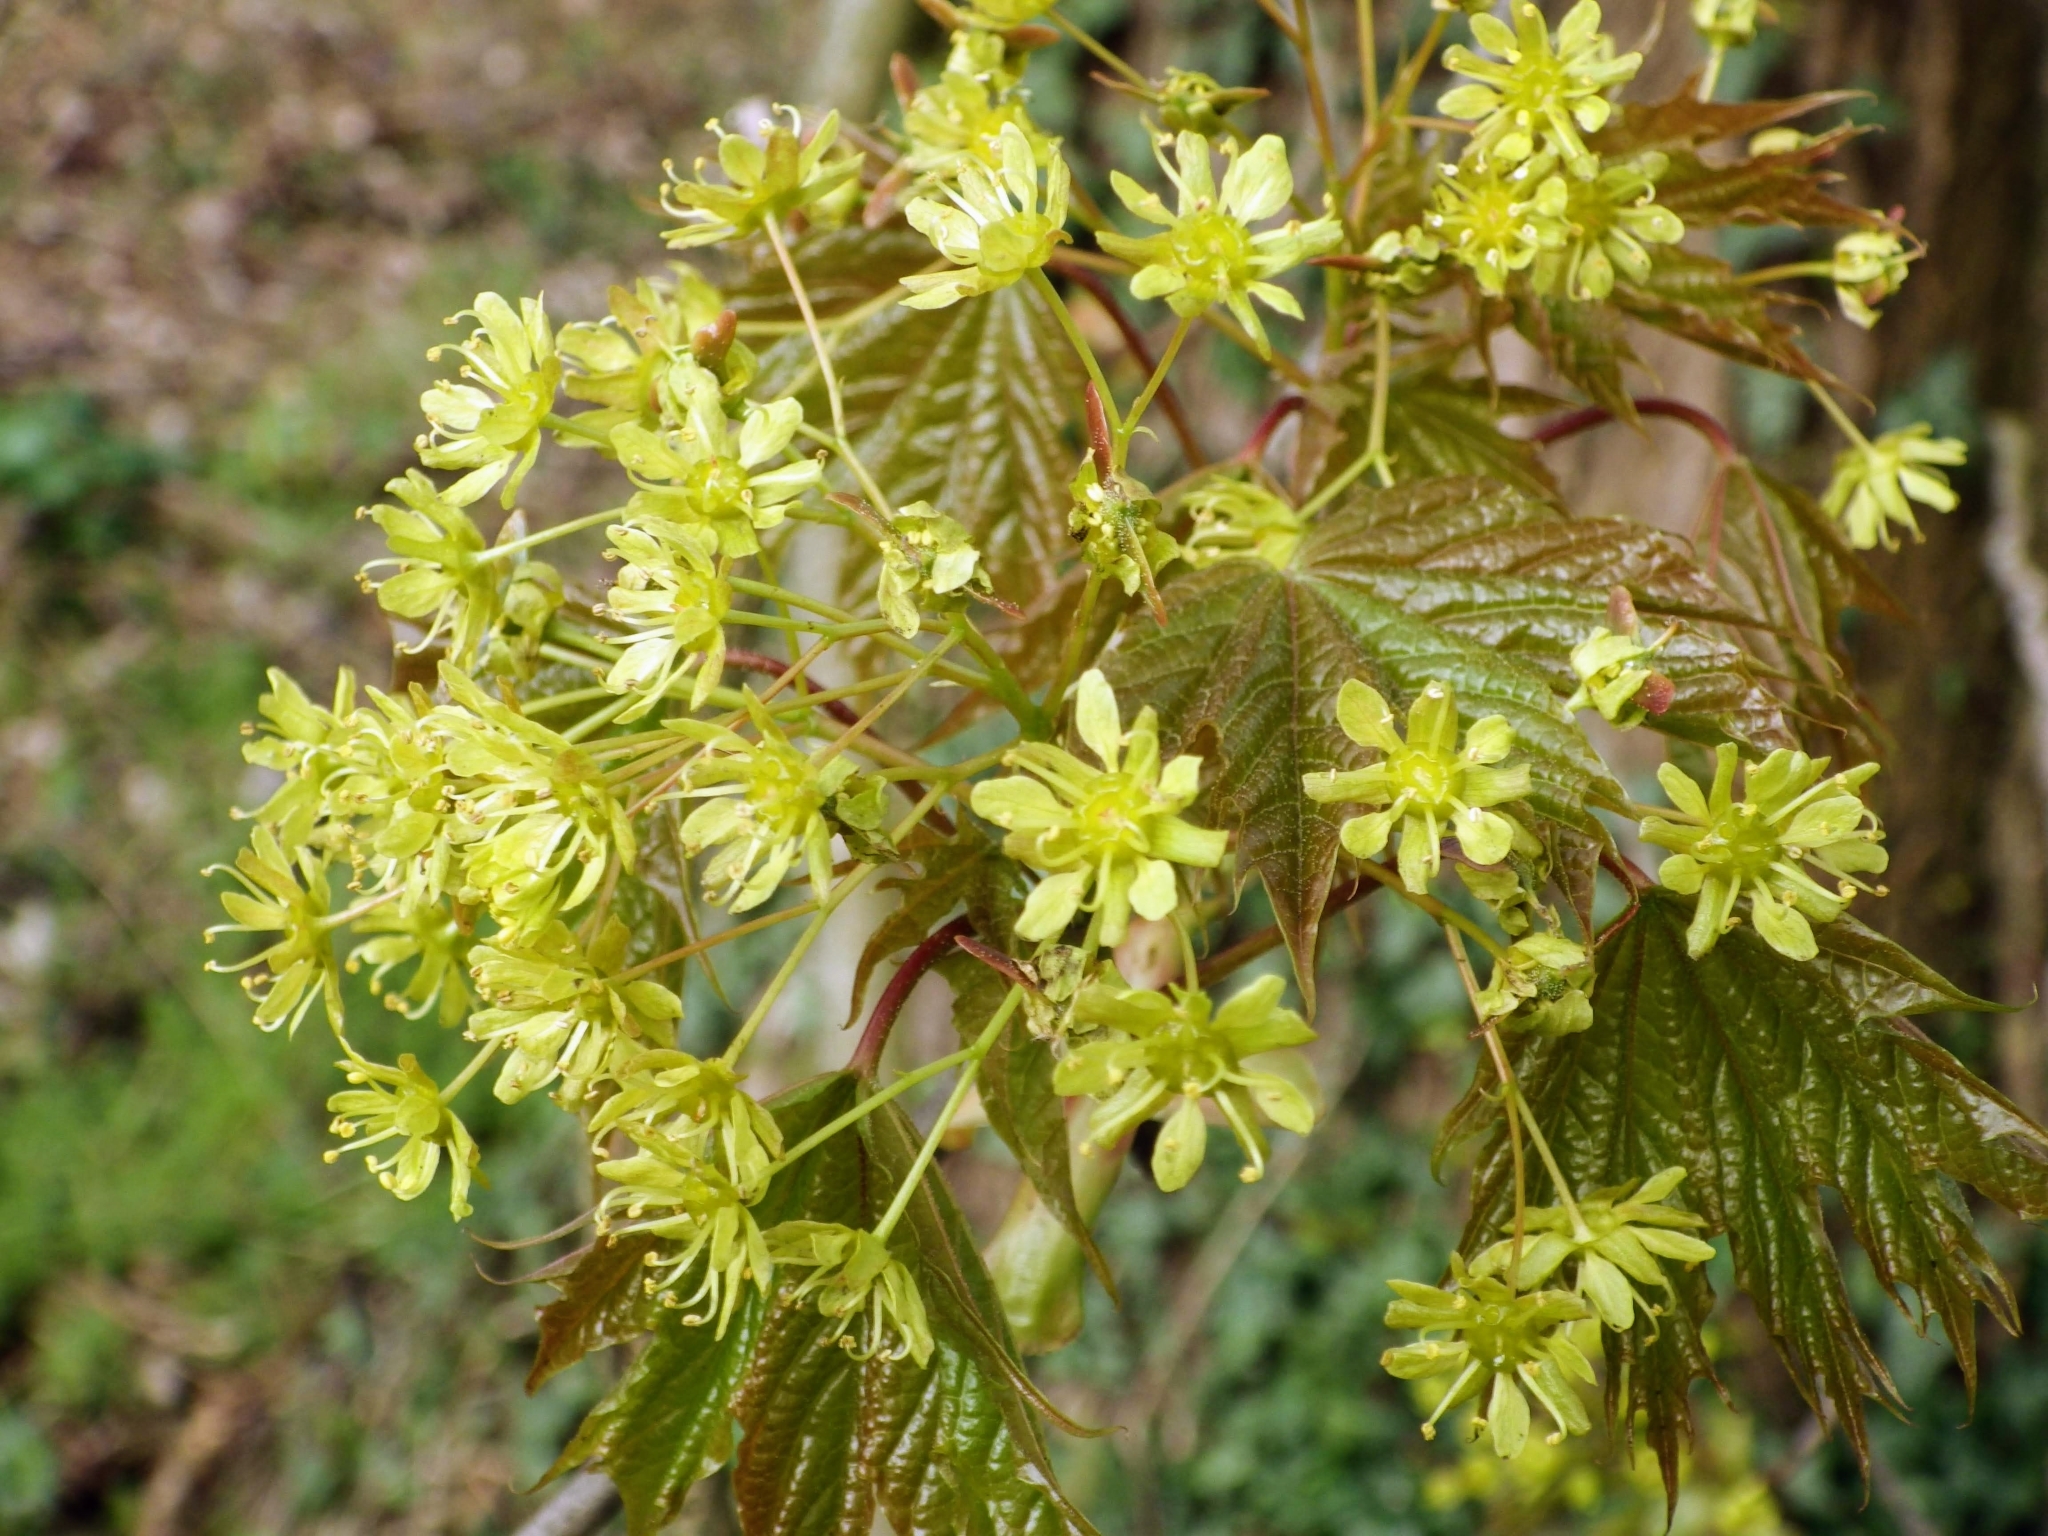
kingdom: Plantae
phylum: Tracheophyta
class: Magnoliopsida
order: Sapindales
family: Sapindaceae
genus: Acer
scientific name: Acer platanoides
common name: Norway maple
